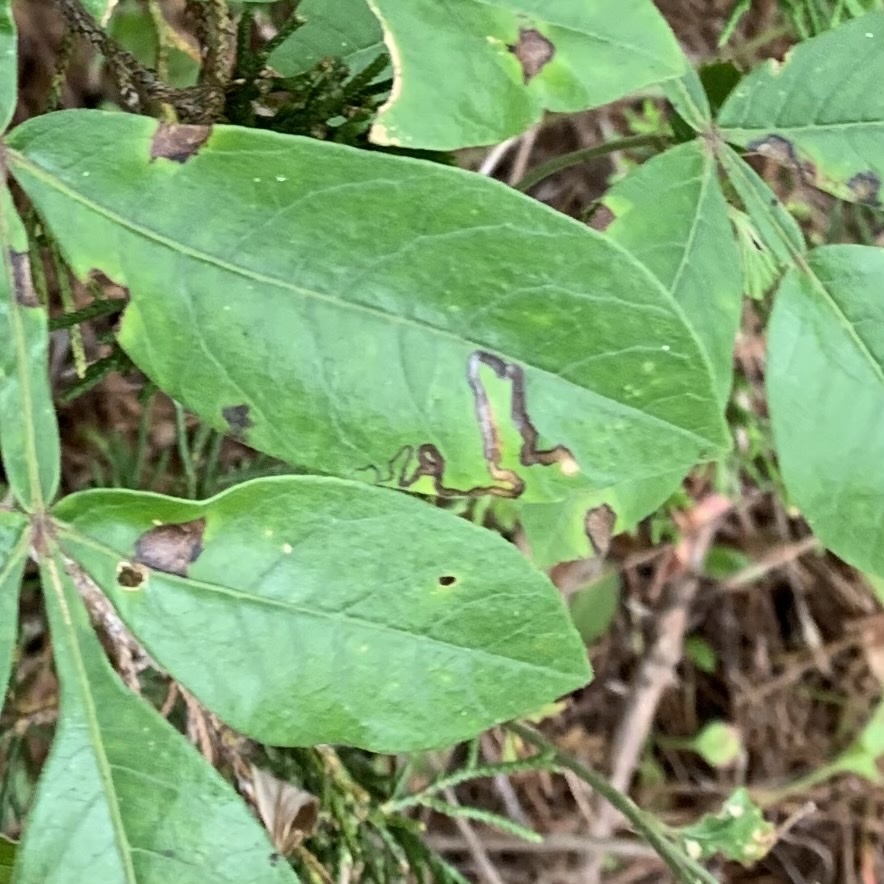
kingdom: Animalia
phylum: Arthropoda
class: Insecta
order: Lepidoptera
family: Nepticulidae
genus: Stigmella
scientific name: Stigmella intermedia
